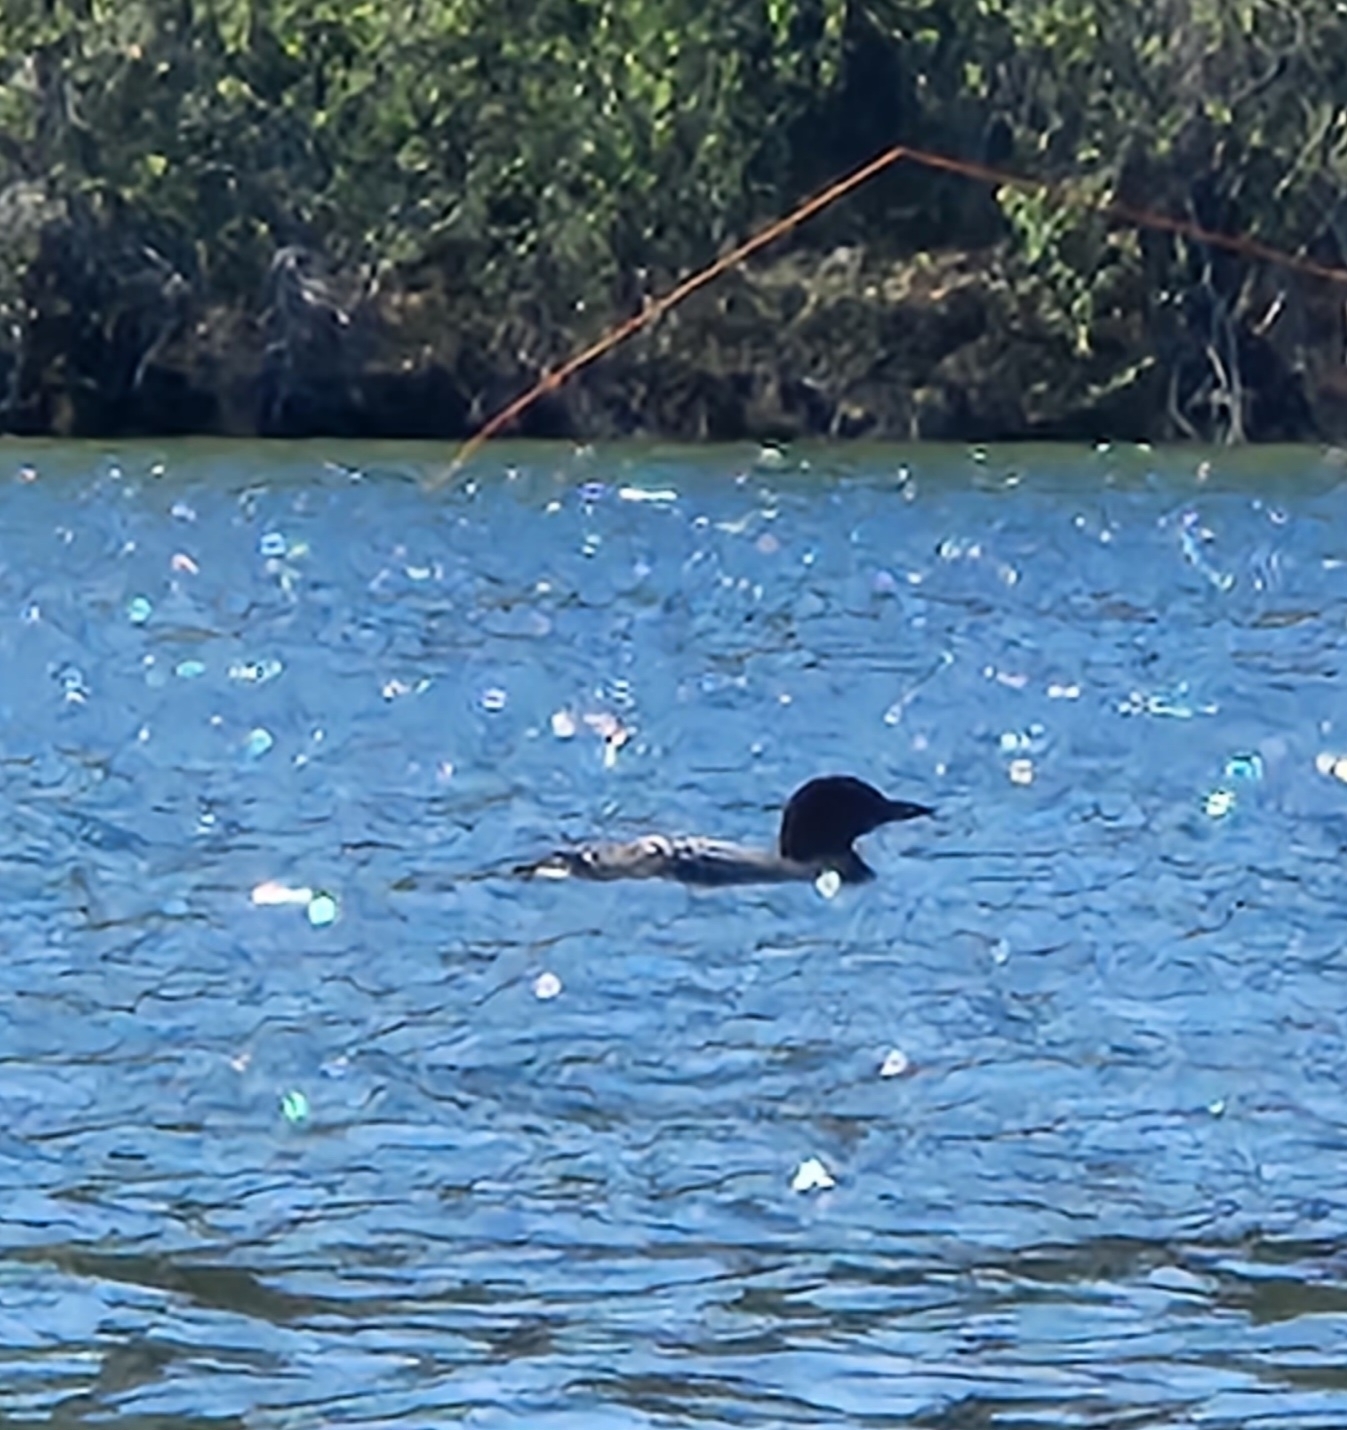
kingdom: Animalia
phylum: Chordata
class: Aves
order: Gaviiformes
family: Gaviidae
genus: Gavia
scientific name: Gavia immer
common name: Common loon
